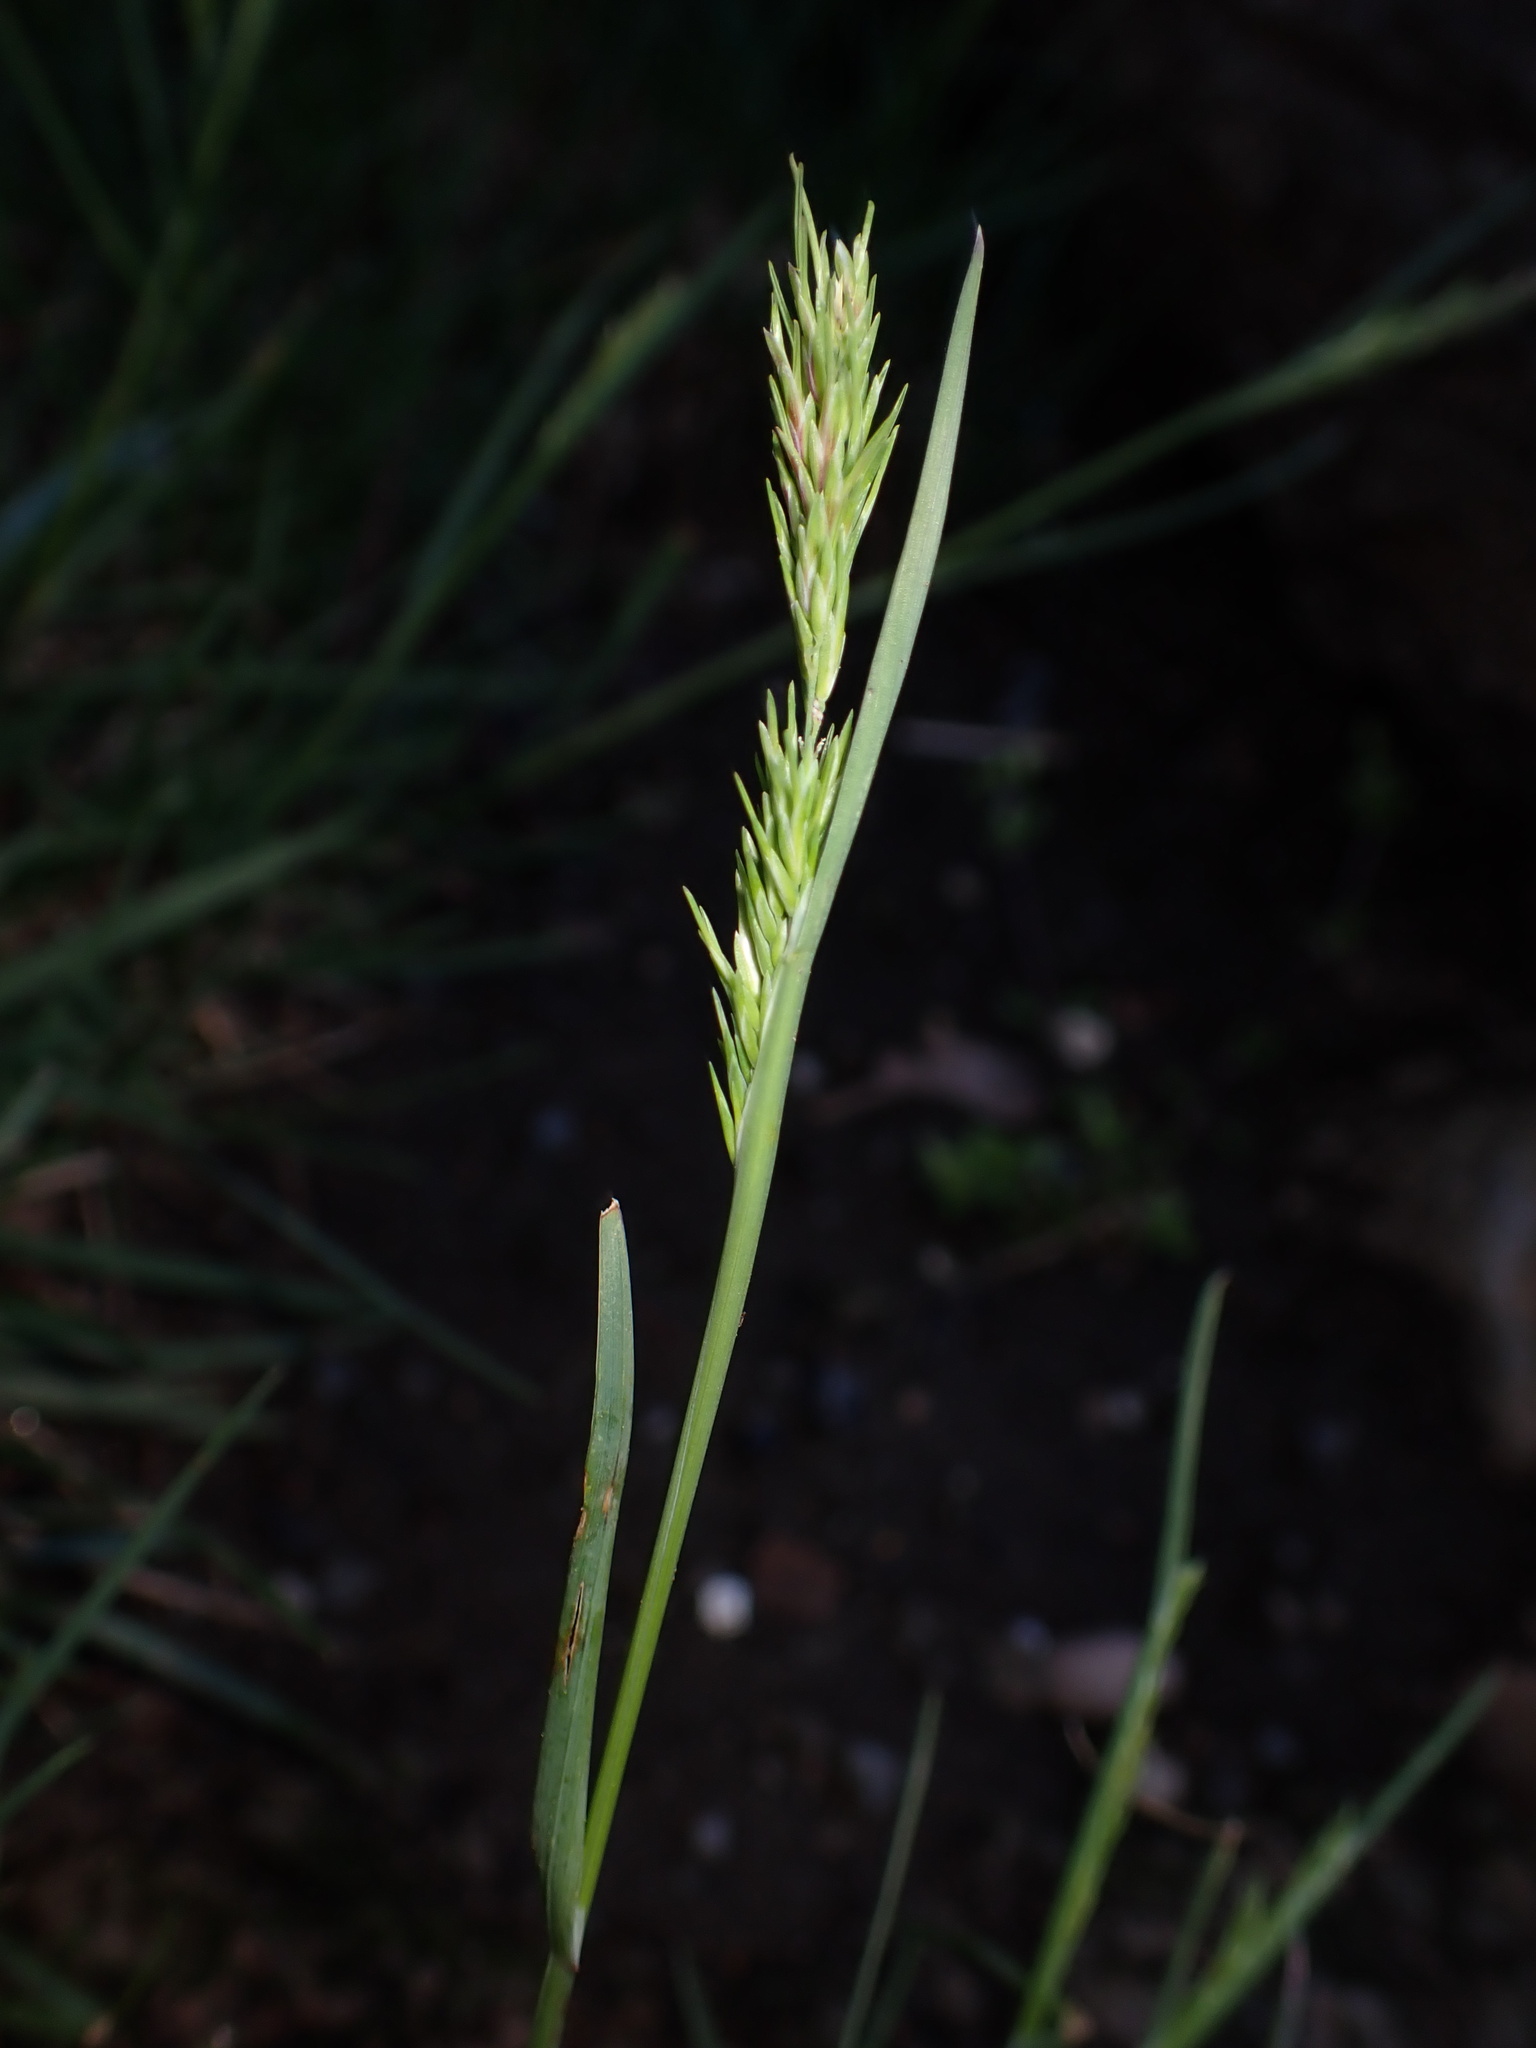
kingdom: Plantae
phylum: Tracheophyta
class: Liliopsida
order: Poales
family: Poaceae
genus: Poa
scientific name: Poa bulbosa
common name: Bulbous bluegrass
